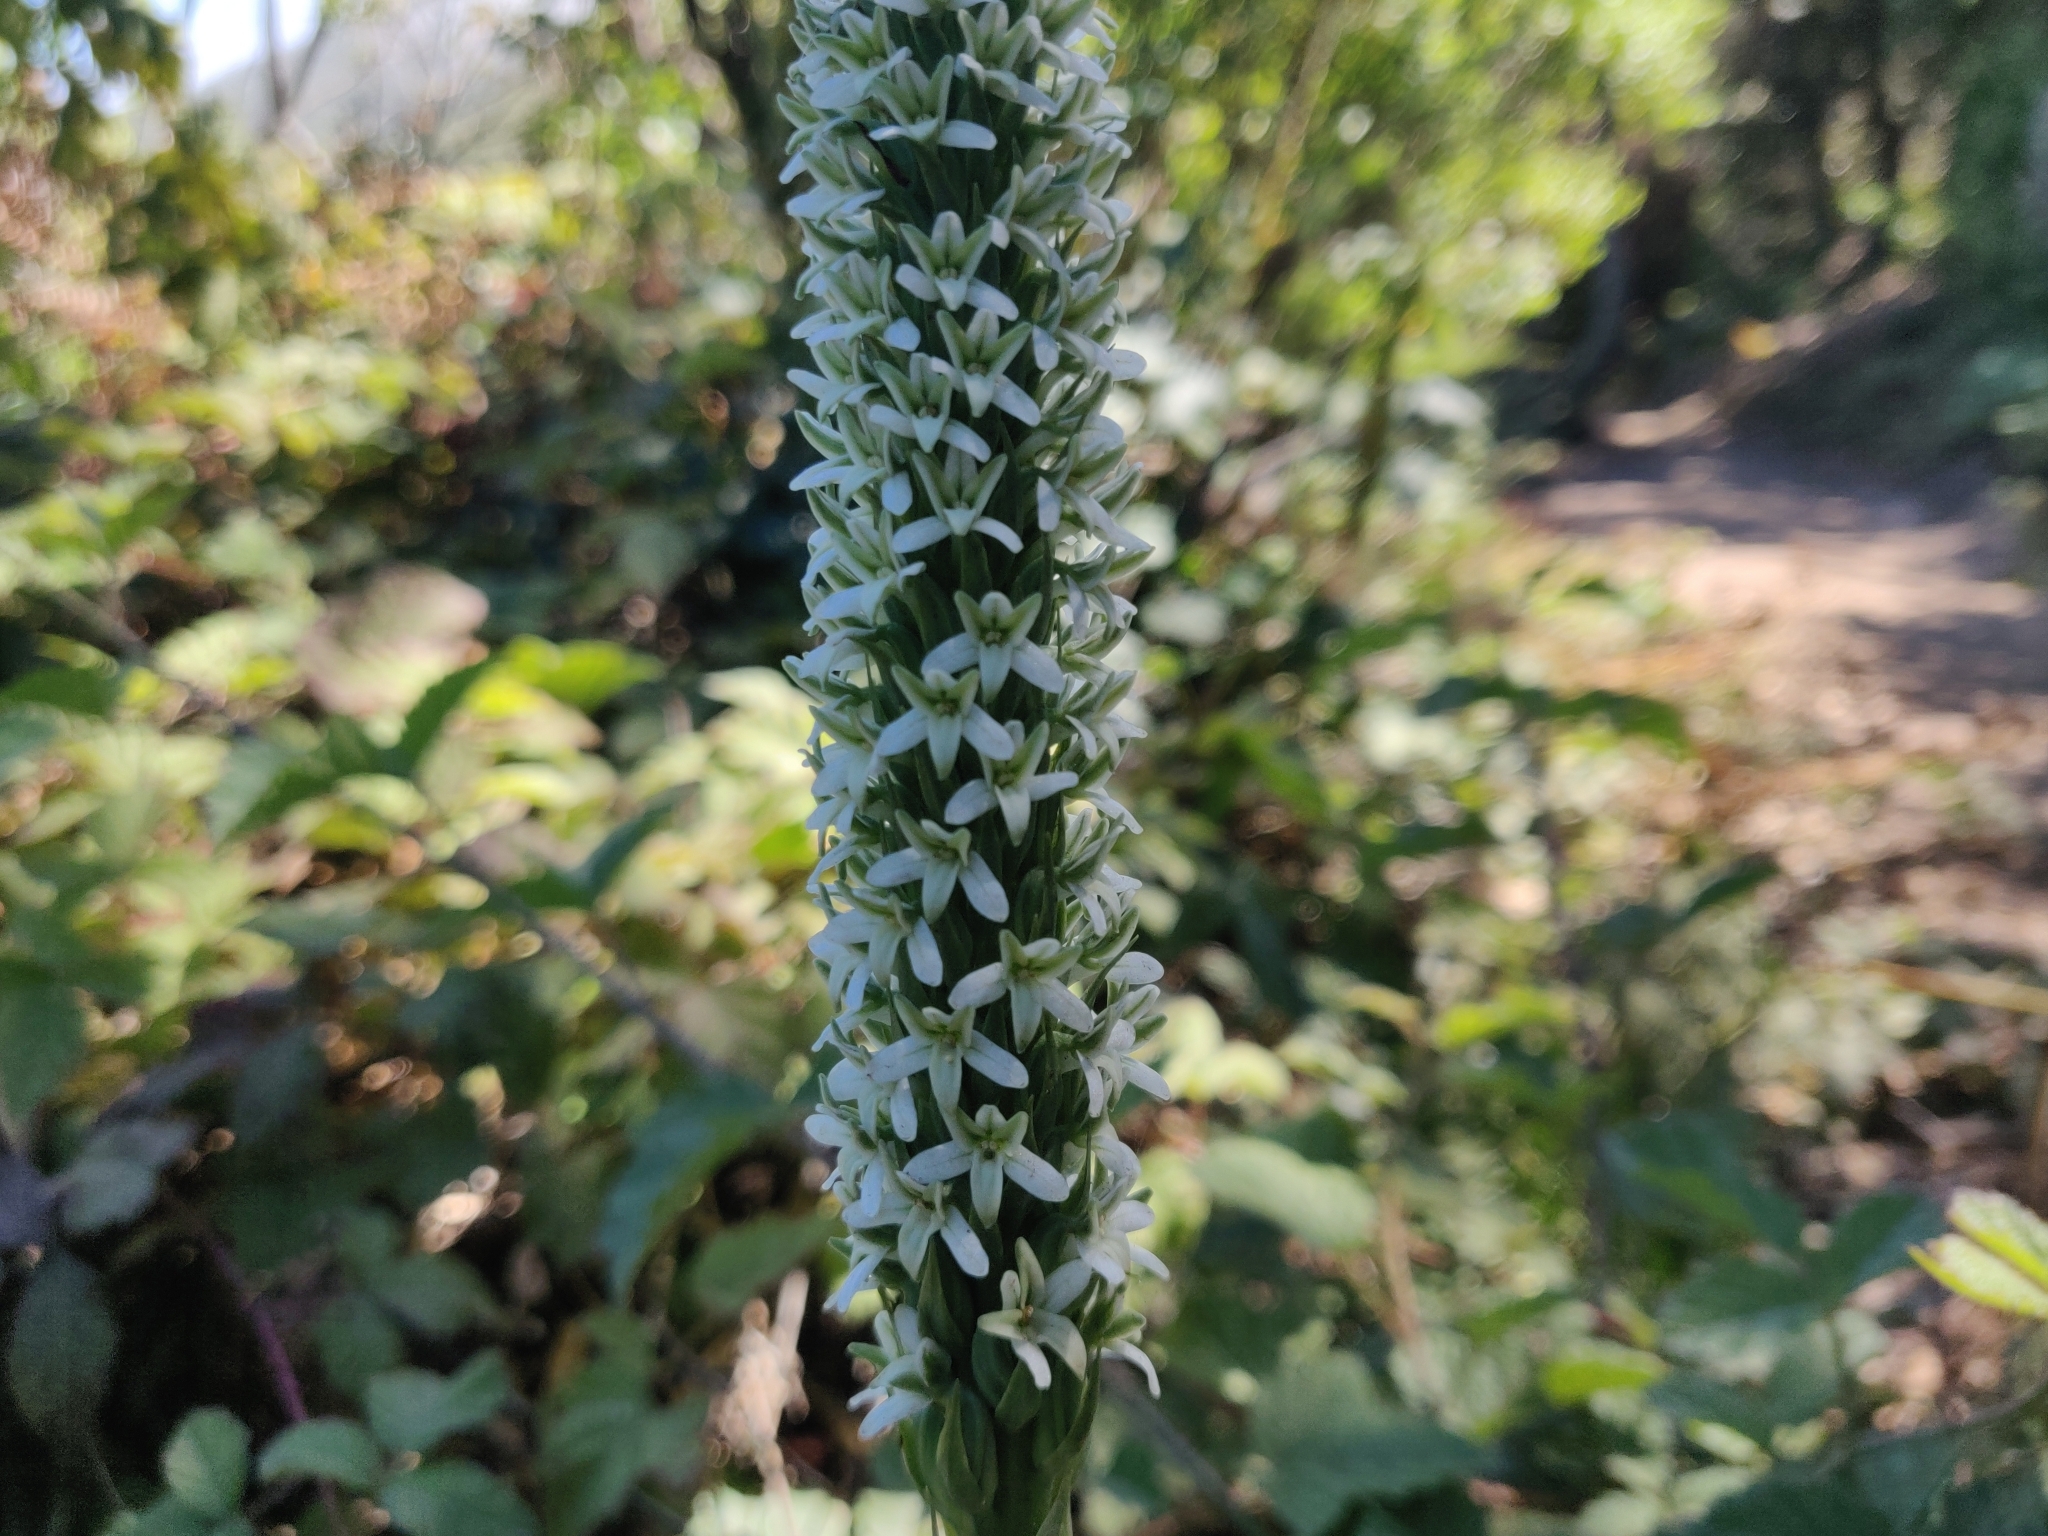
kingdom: Plantae
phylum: Tracheophyta
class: Liliopsida
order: Asparagales
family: Orchidaceae
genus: Platanthera
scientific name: Platanthera elegans
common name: Coast piperia
